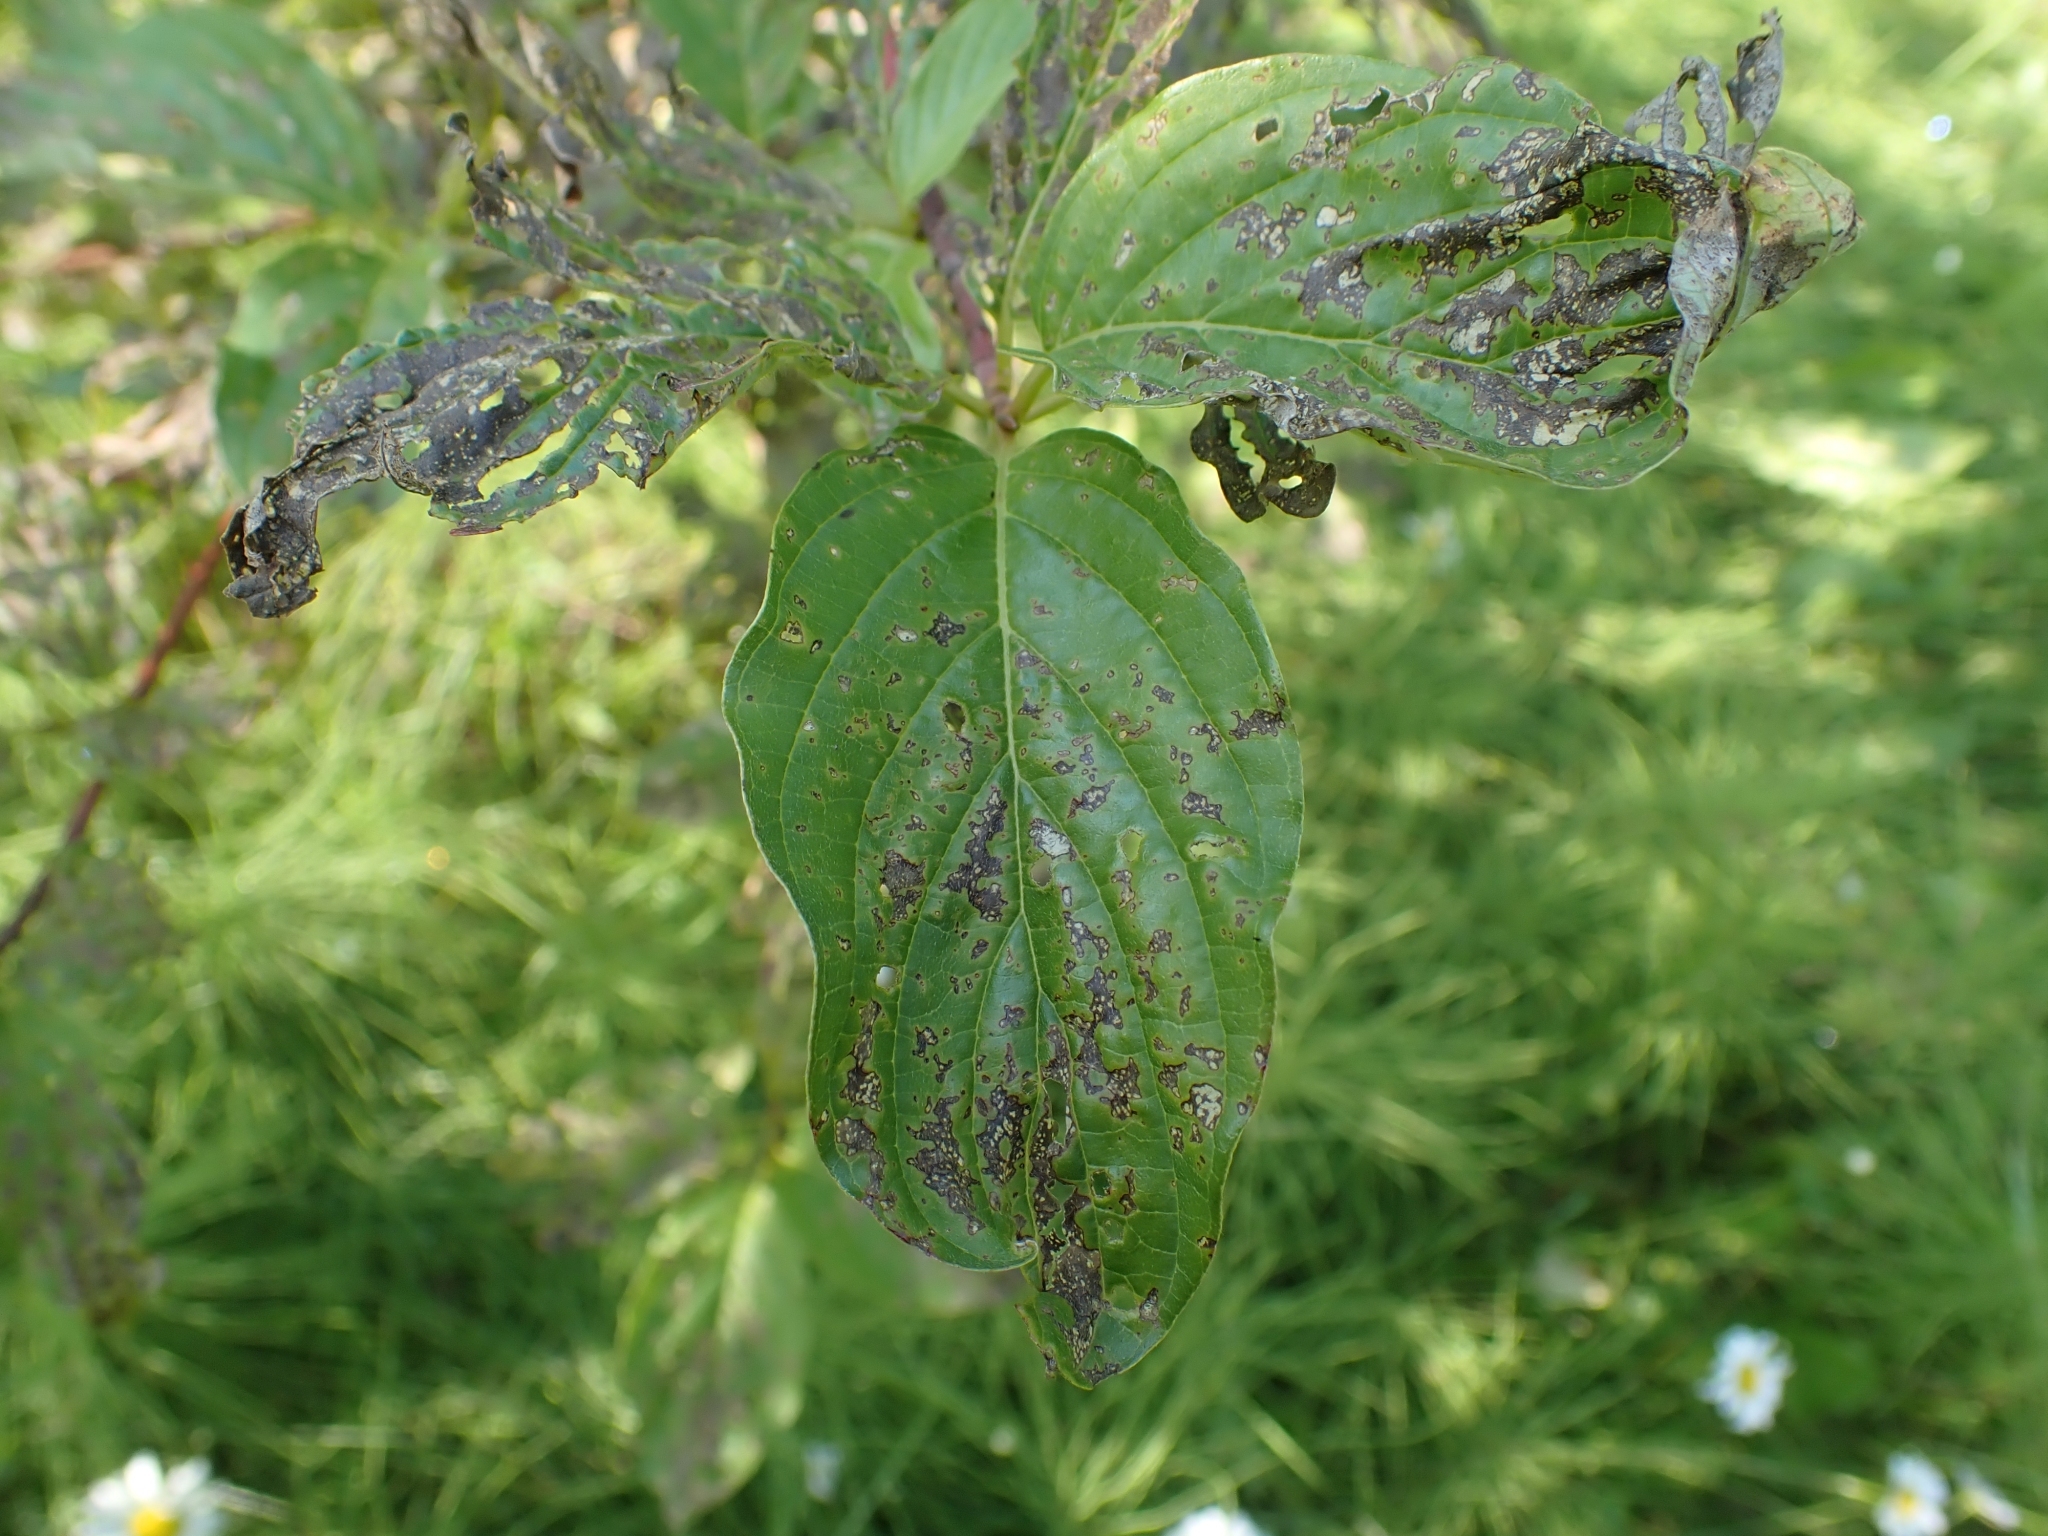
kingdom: Plantae
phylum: Tracheophyta
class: Magnoliopsida
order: Cornales
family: Cornaceae
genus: Cornus
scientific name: Cornus sericea
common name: Red-osier dogwood
